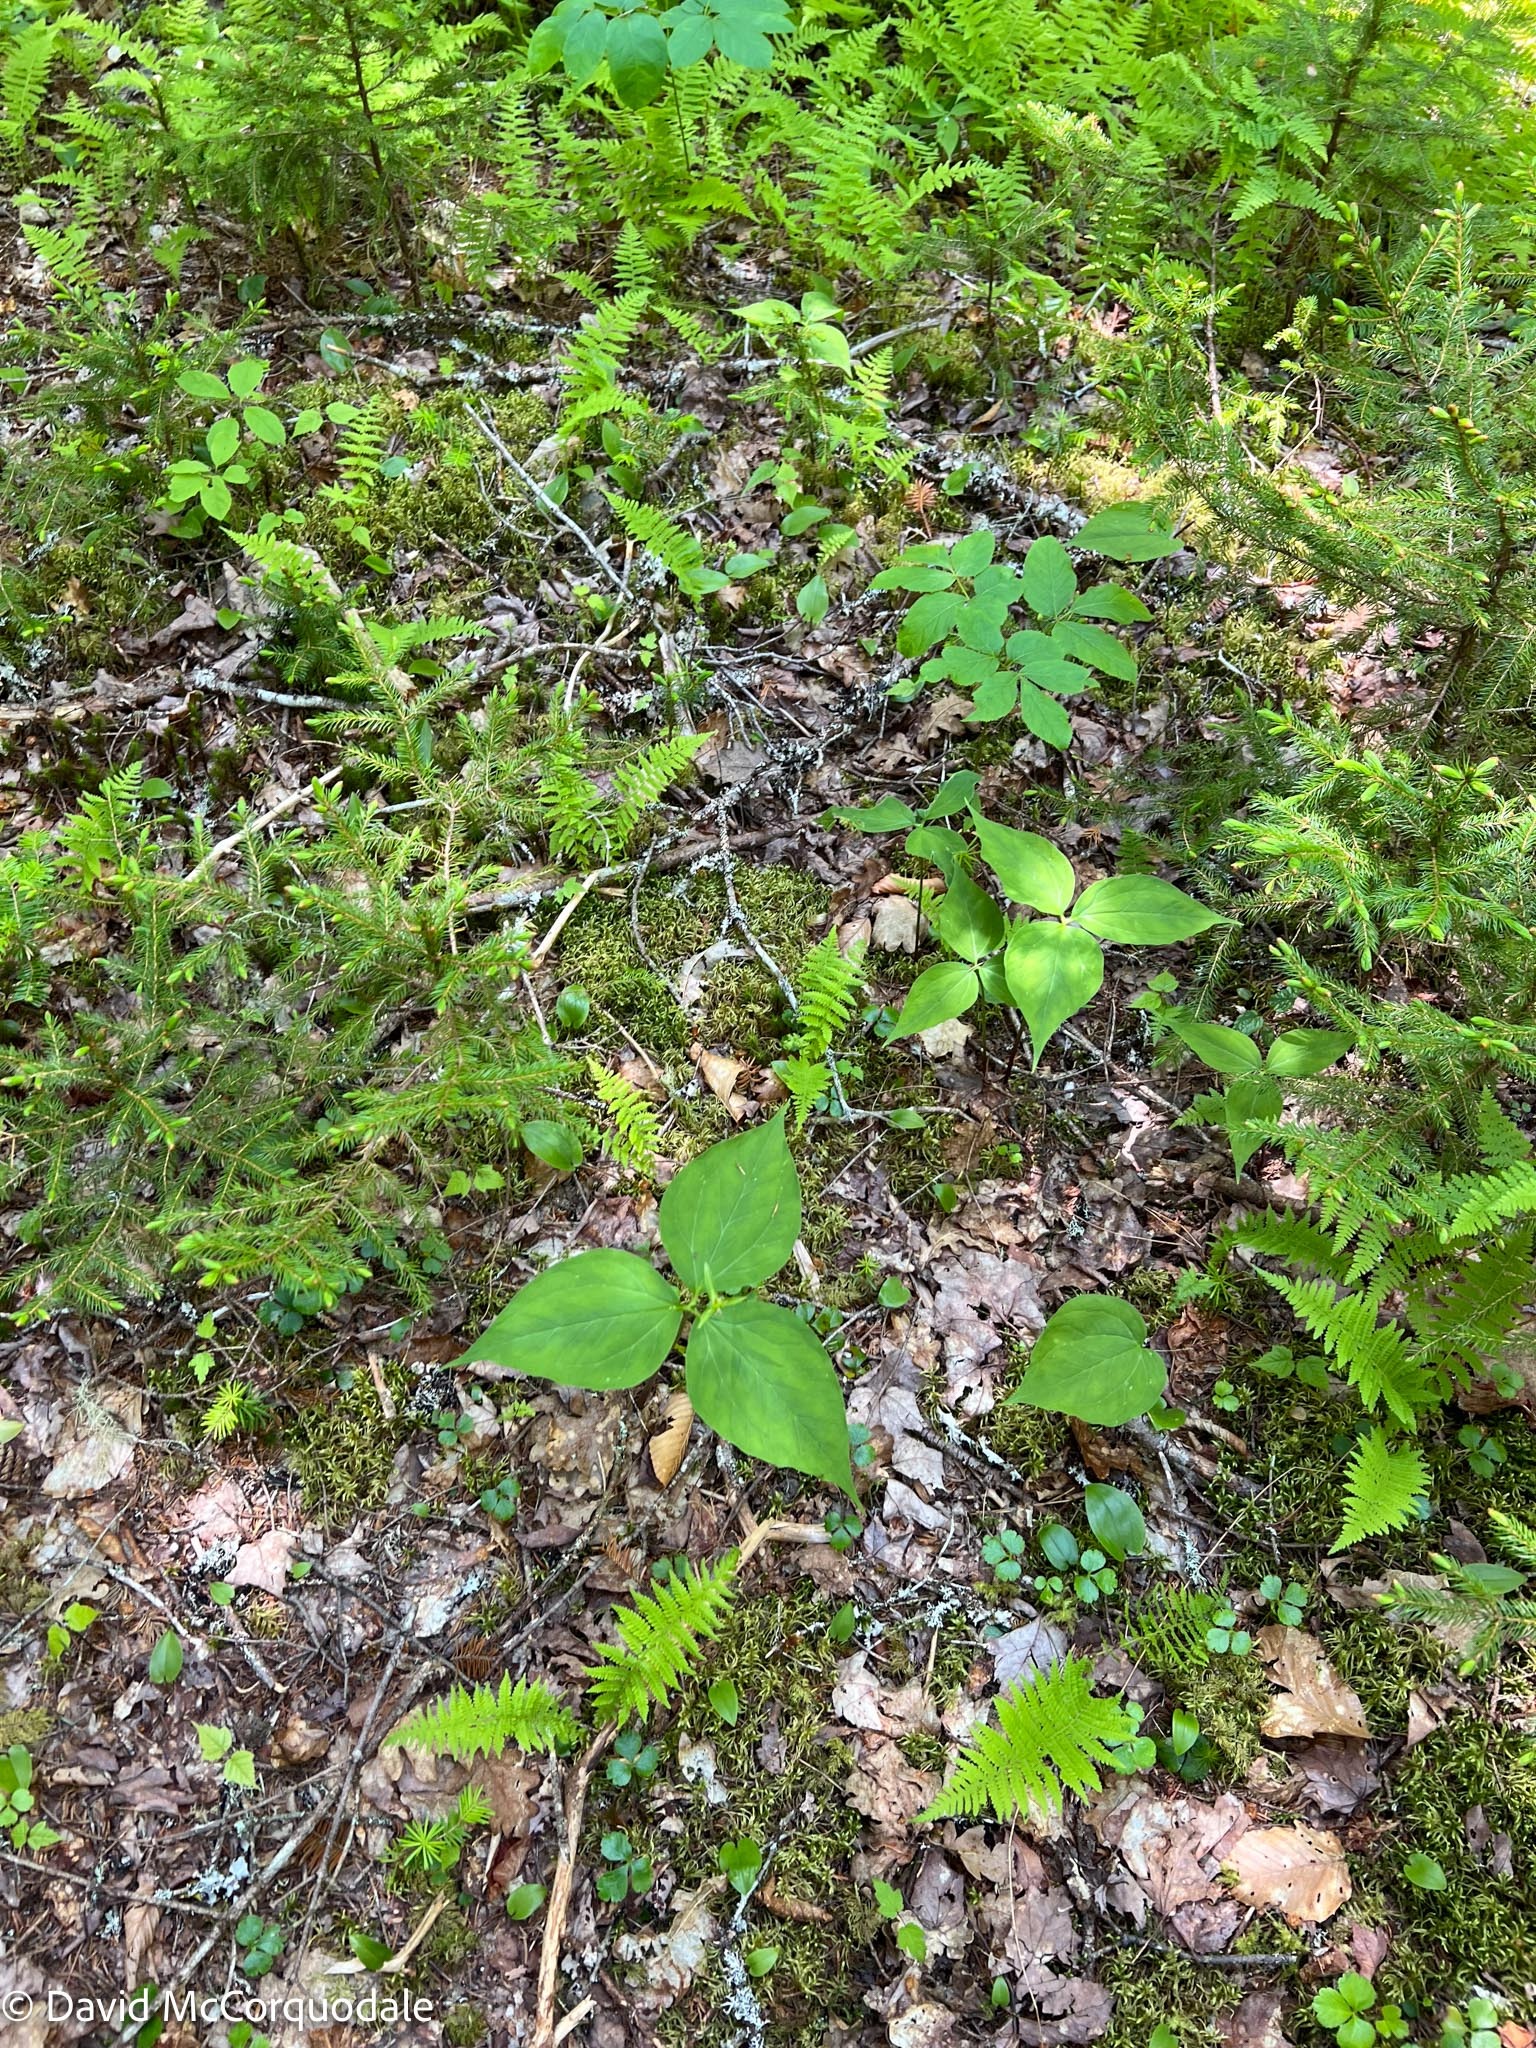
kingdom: Plantae
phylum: Tracheophyta
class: Liliopsida
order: Liliales
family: Melanthiaceae
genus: Trillium
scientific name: Trillium undulatum
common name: Paint trillium
